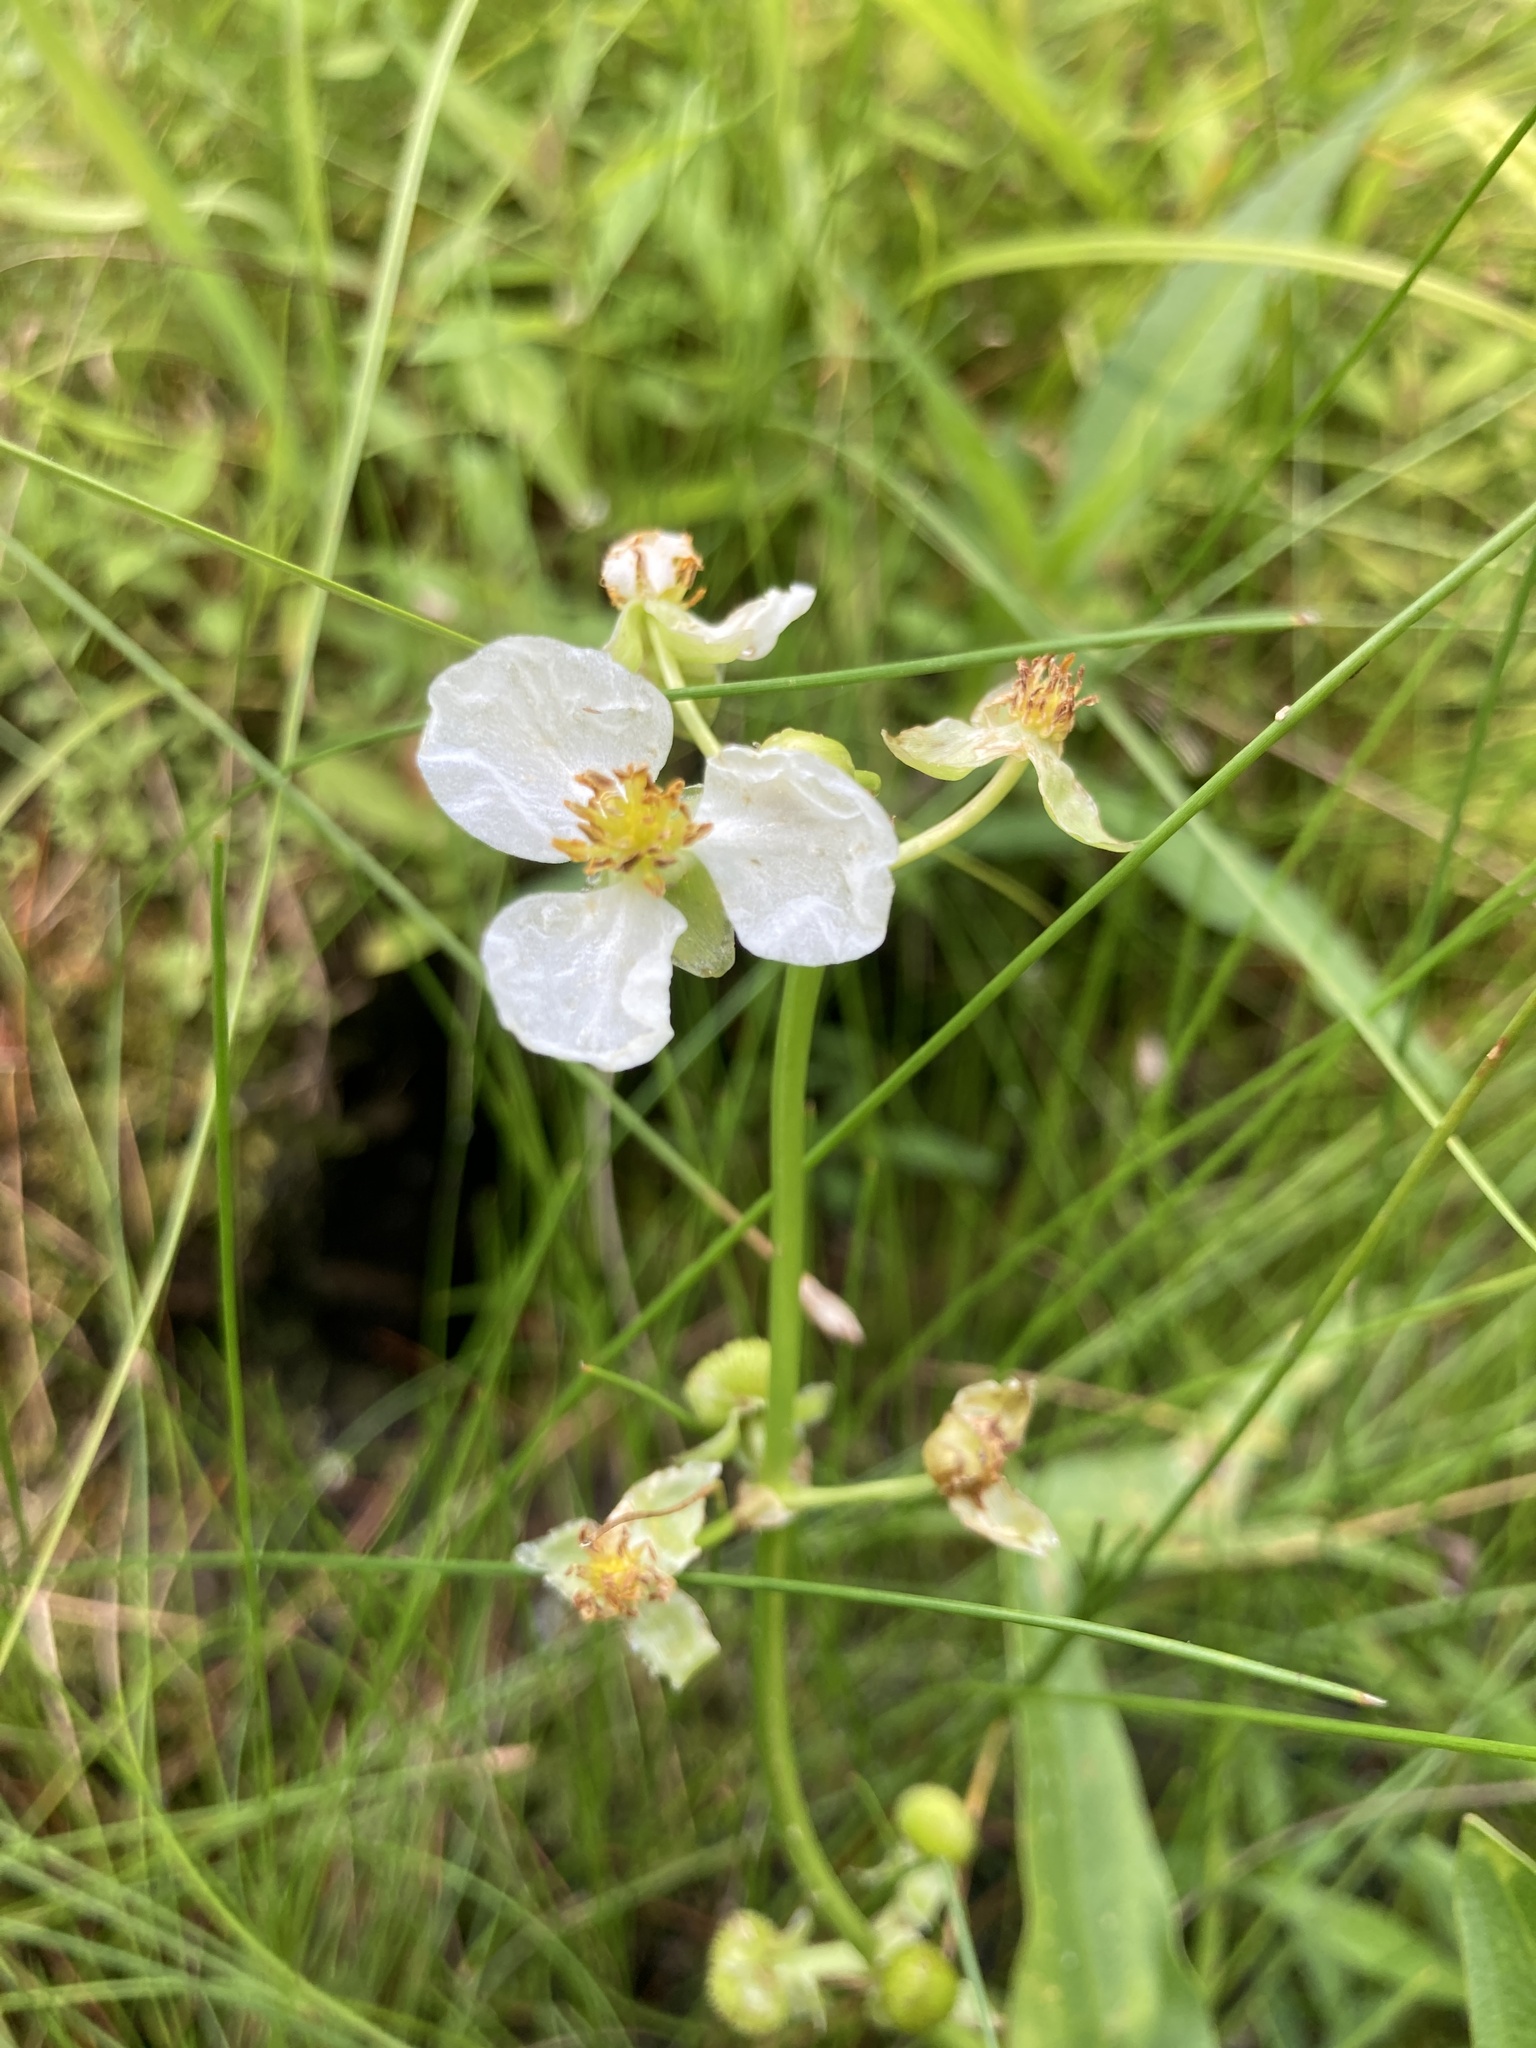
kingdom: Plantae
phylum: Tracheophyta
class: Liliopsida
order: Alismatales
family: Alismataceae
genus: Sagittaria
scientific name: Sagittaria latifolia
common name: Duck-potato
